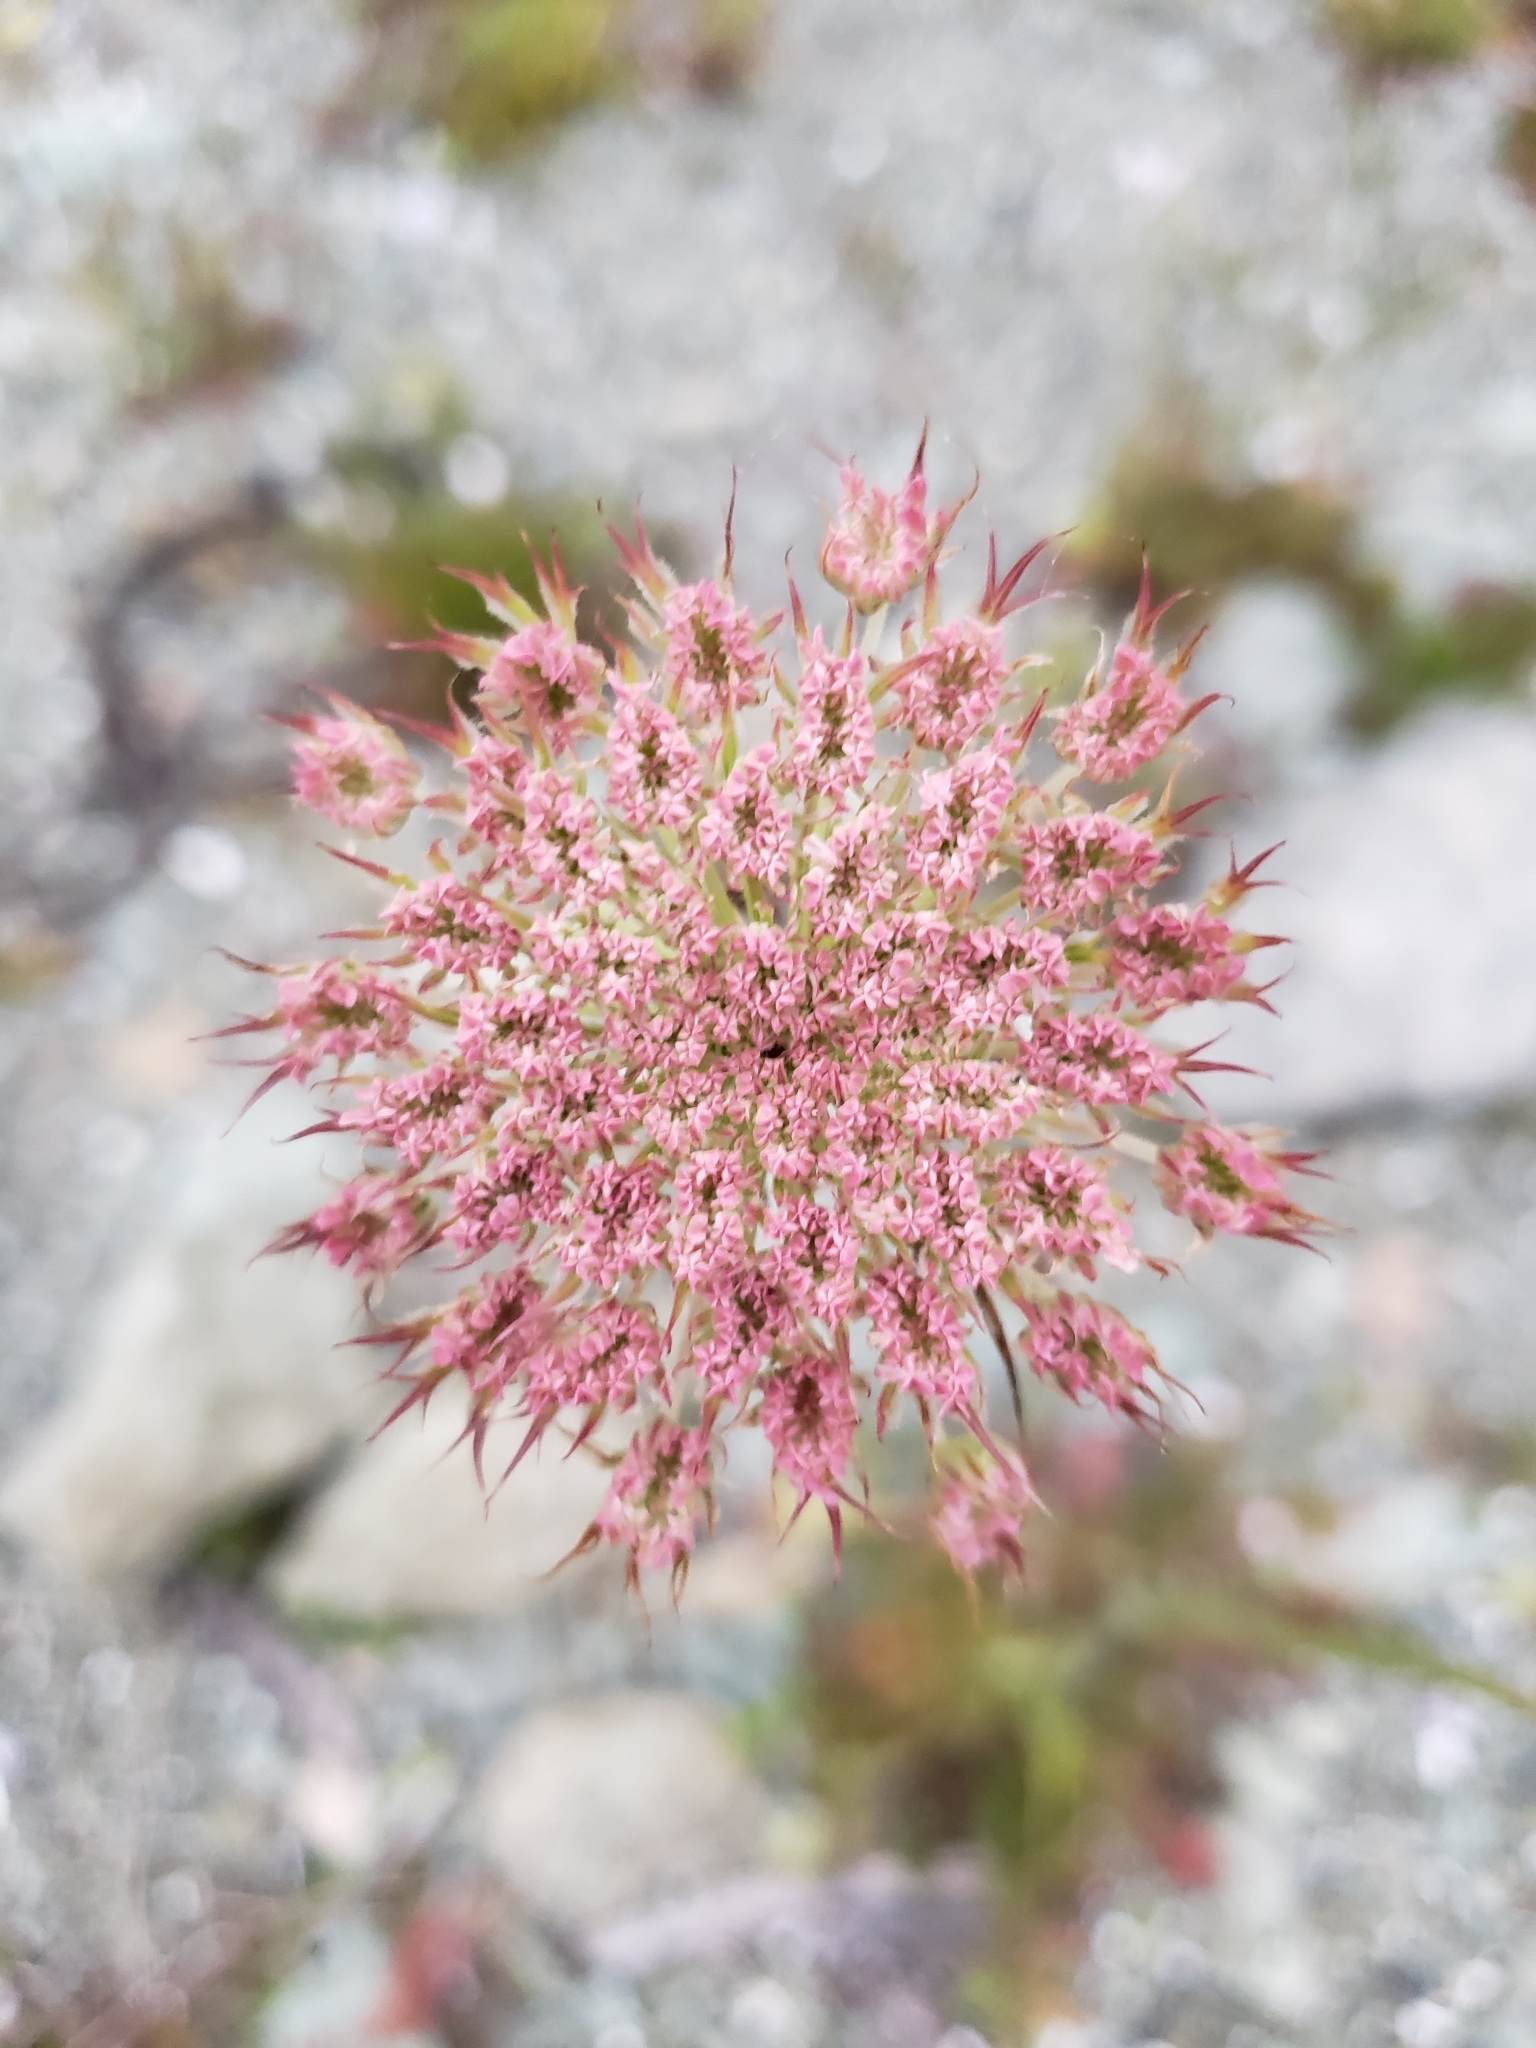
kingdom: Plantae
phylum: Tracheophyta
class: Magnoliopsida
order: Apiales
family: Apiaceae
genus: Daucus
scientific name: Daucus carota
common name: Wild carrot
